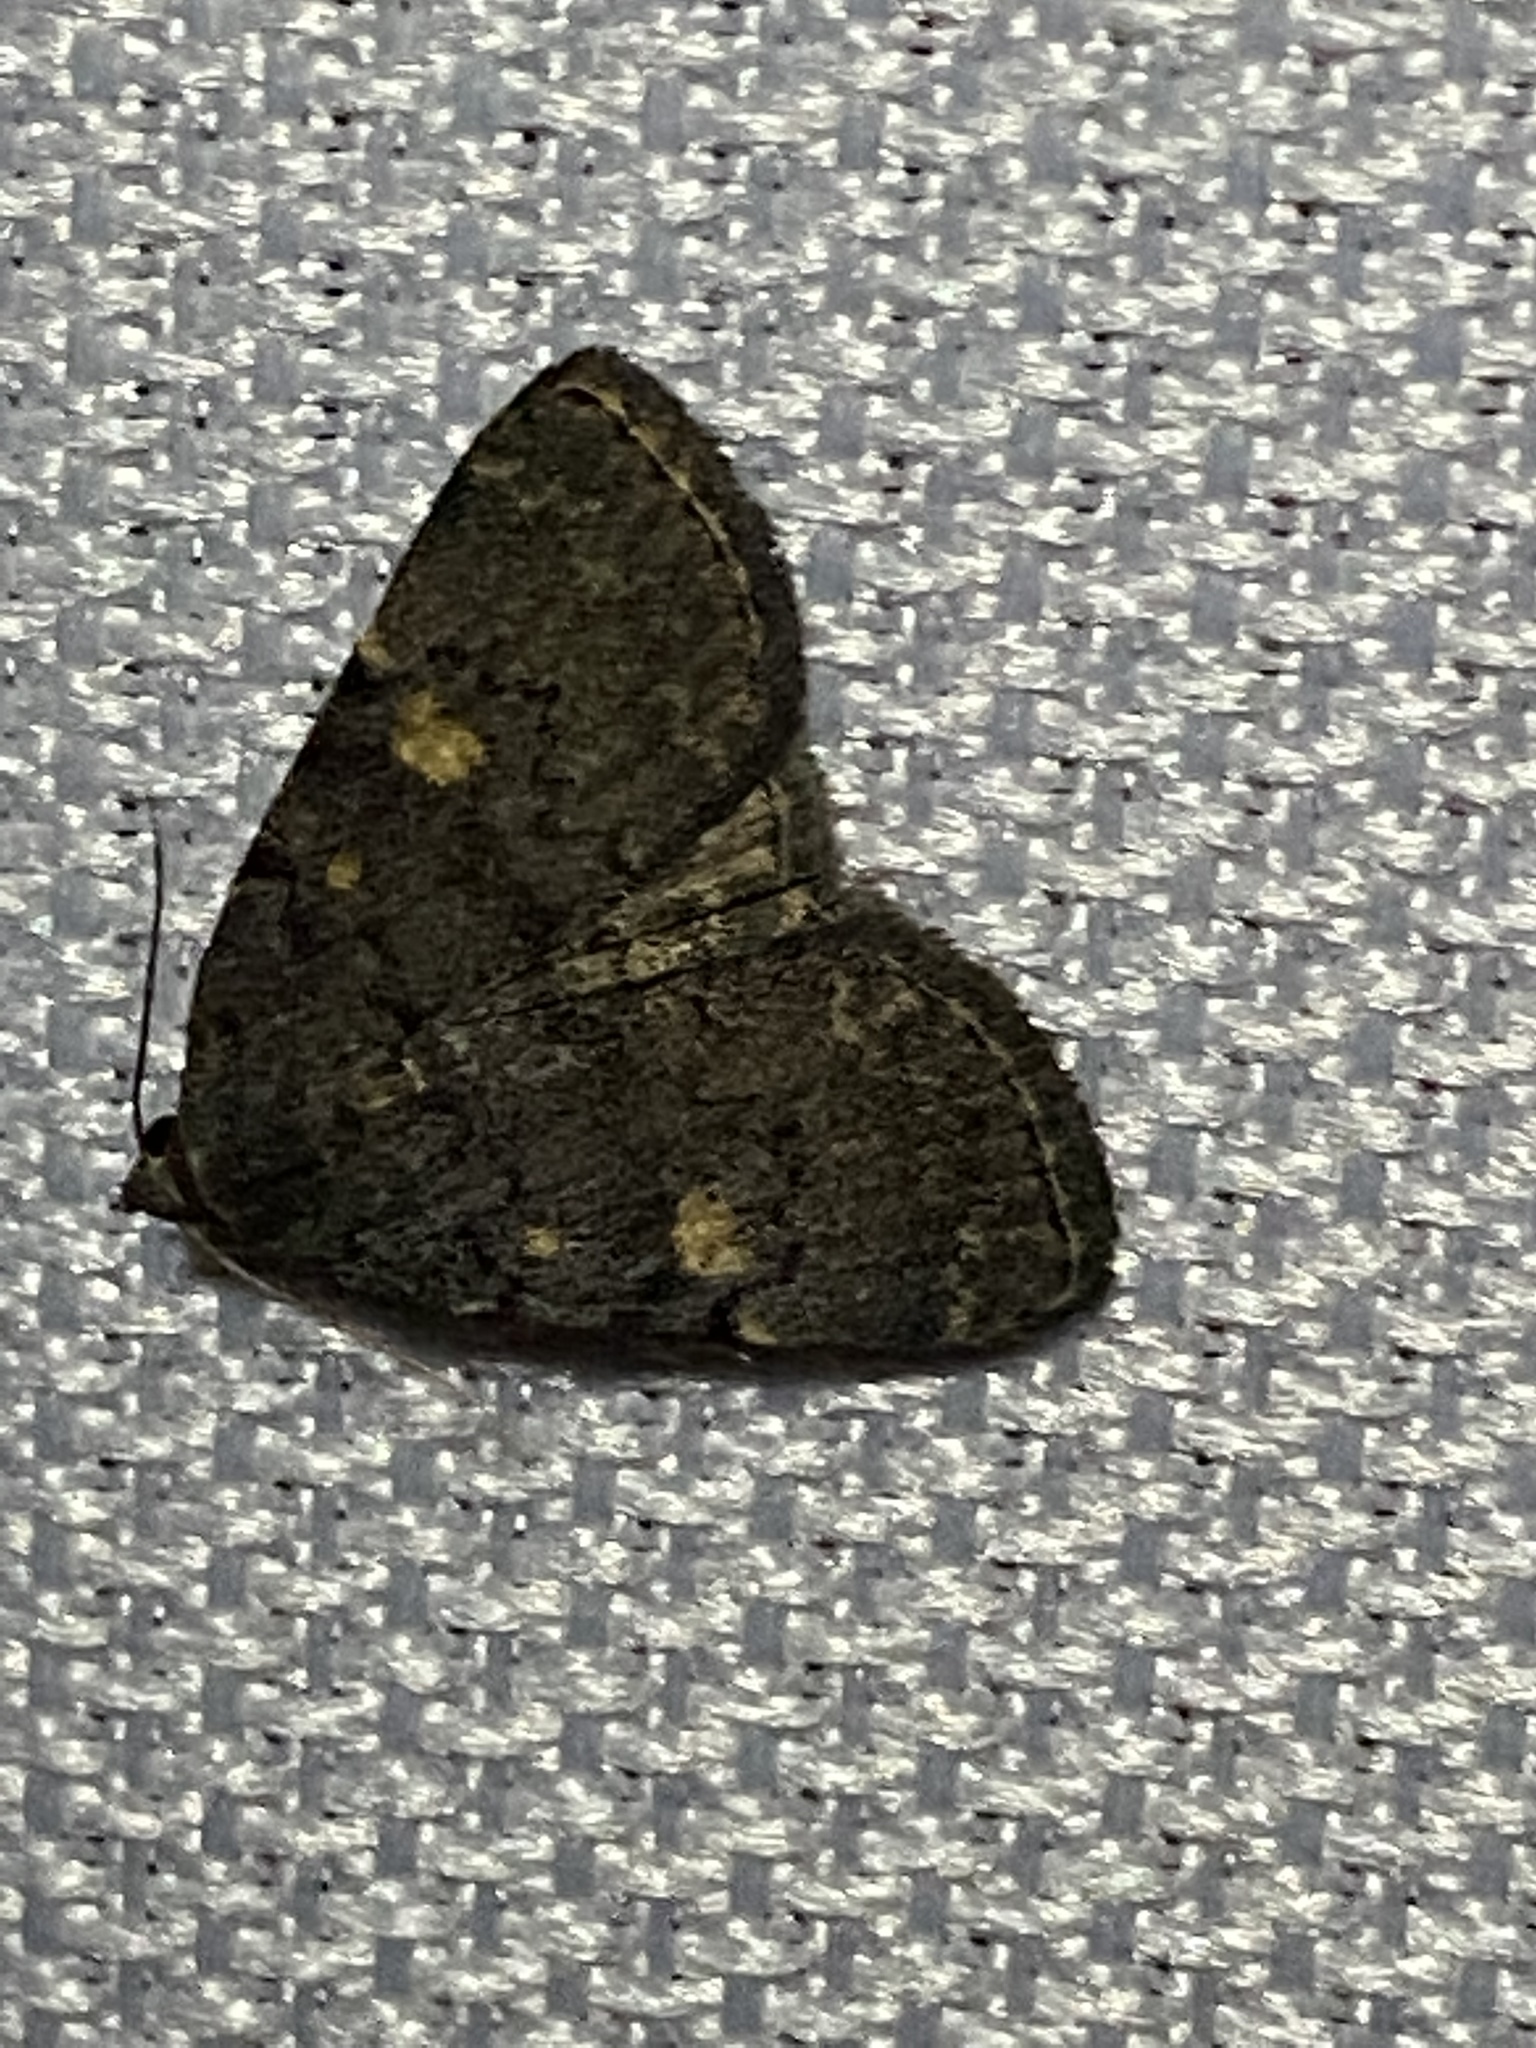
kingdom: Animalia
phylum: Arthropoda
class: Insecta
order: Lepidoptera
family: Erebidae
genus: Idia
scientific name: Idia aemula
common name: Common idia moth
